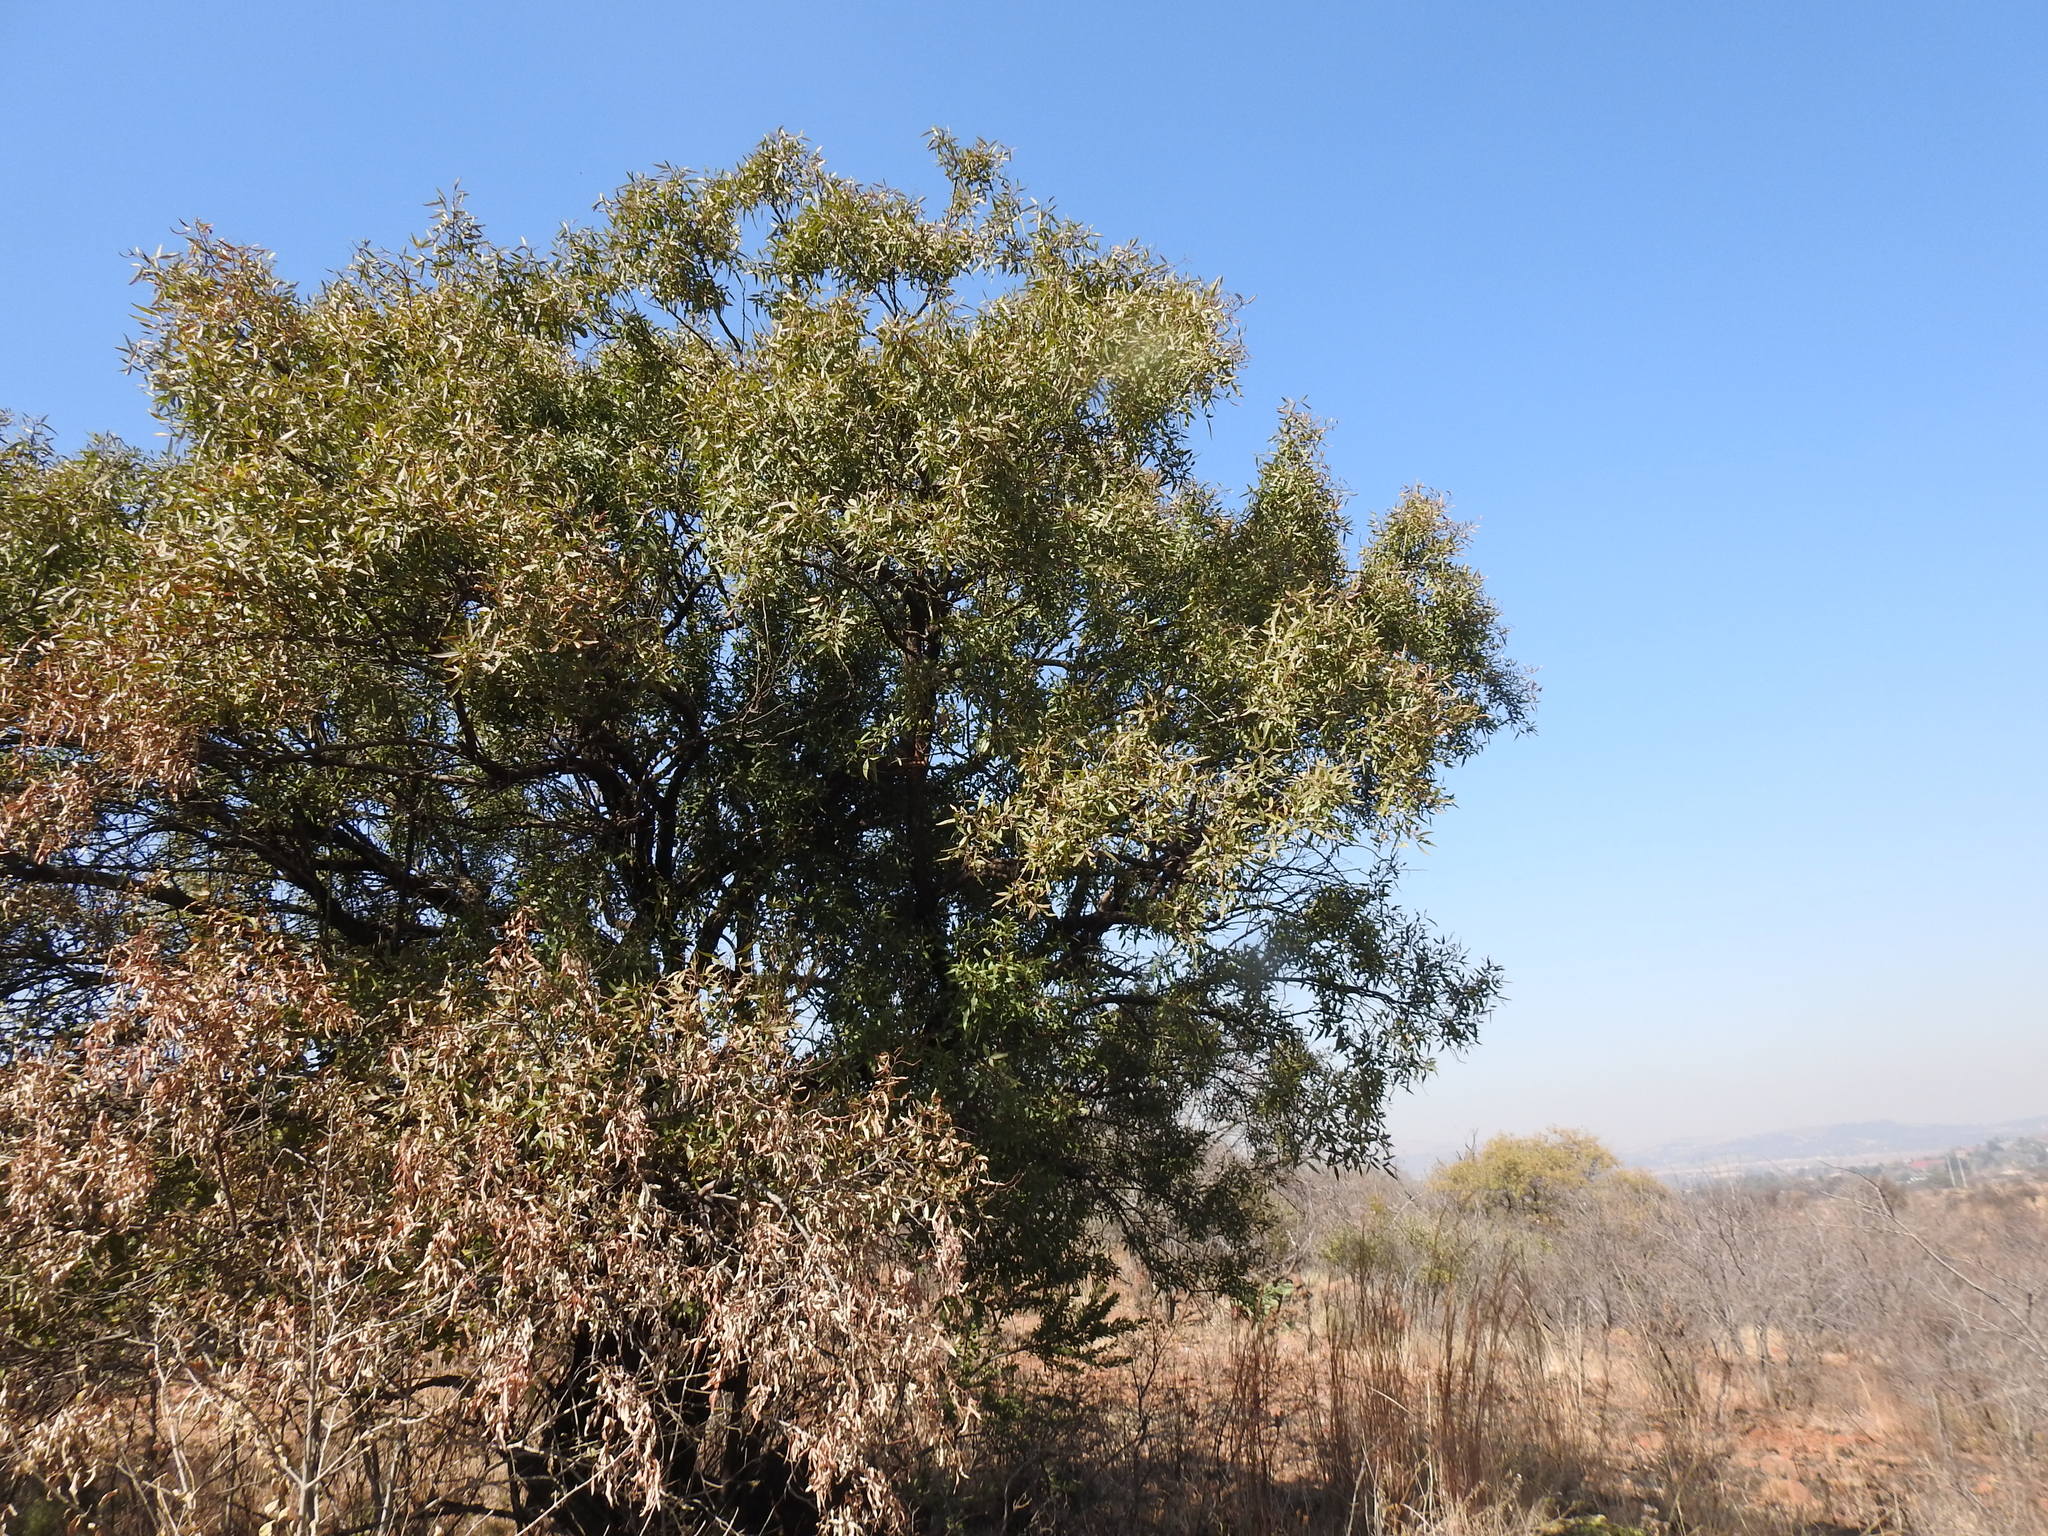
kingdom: Plantae
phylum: Tracheophyta
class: Magnoliopsida
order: Sapindales
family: Anacardiaceae
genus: Searsia
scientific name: Searsia leptodictya
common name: Mountain karee
